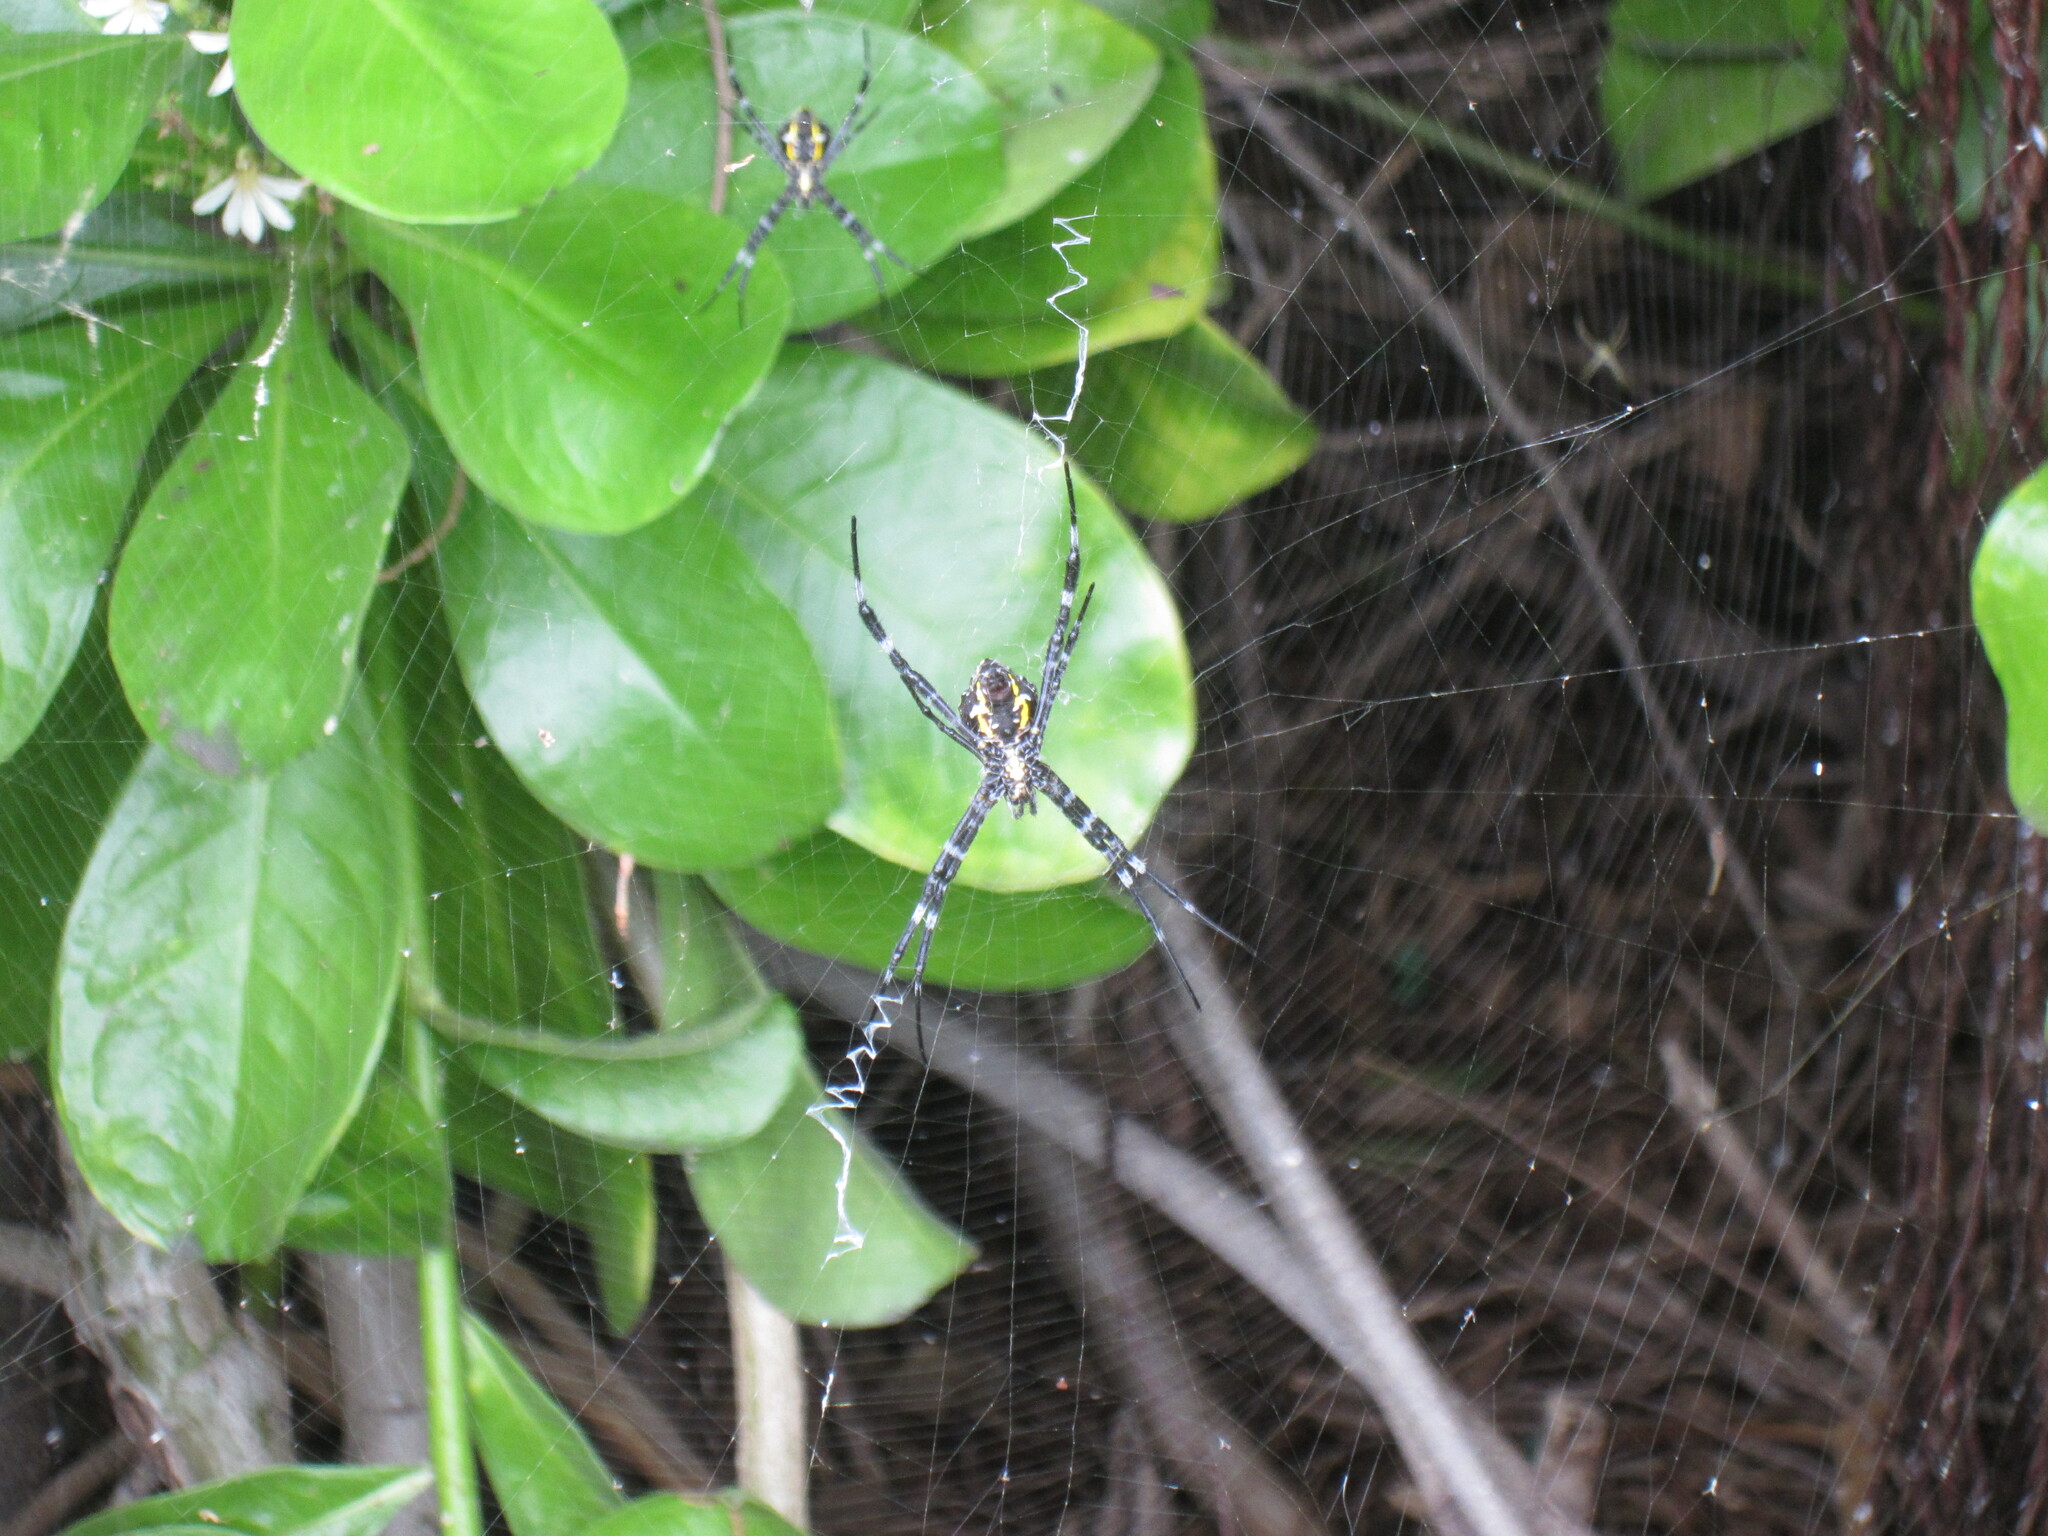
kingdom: Animalia
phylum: Arthropoda
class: Arachnida
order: Araneae
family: Araneidae
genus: Argiope
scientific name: Argiope appensa
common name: Garden spider
